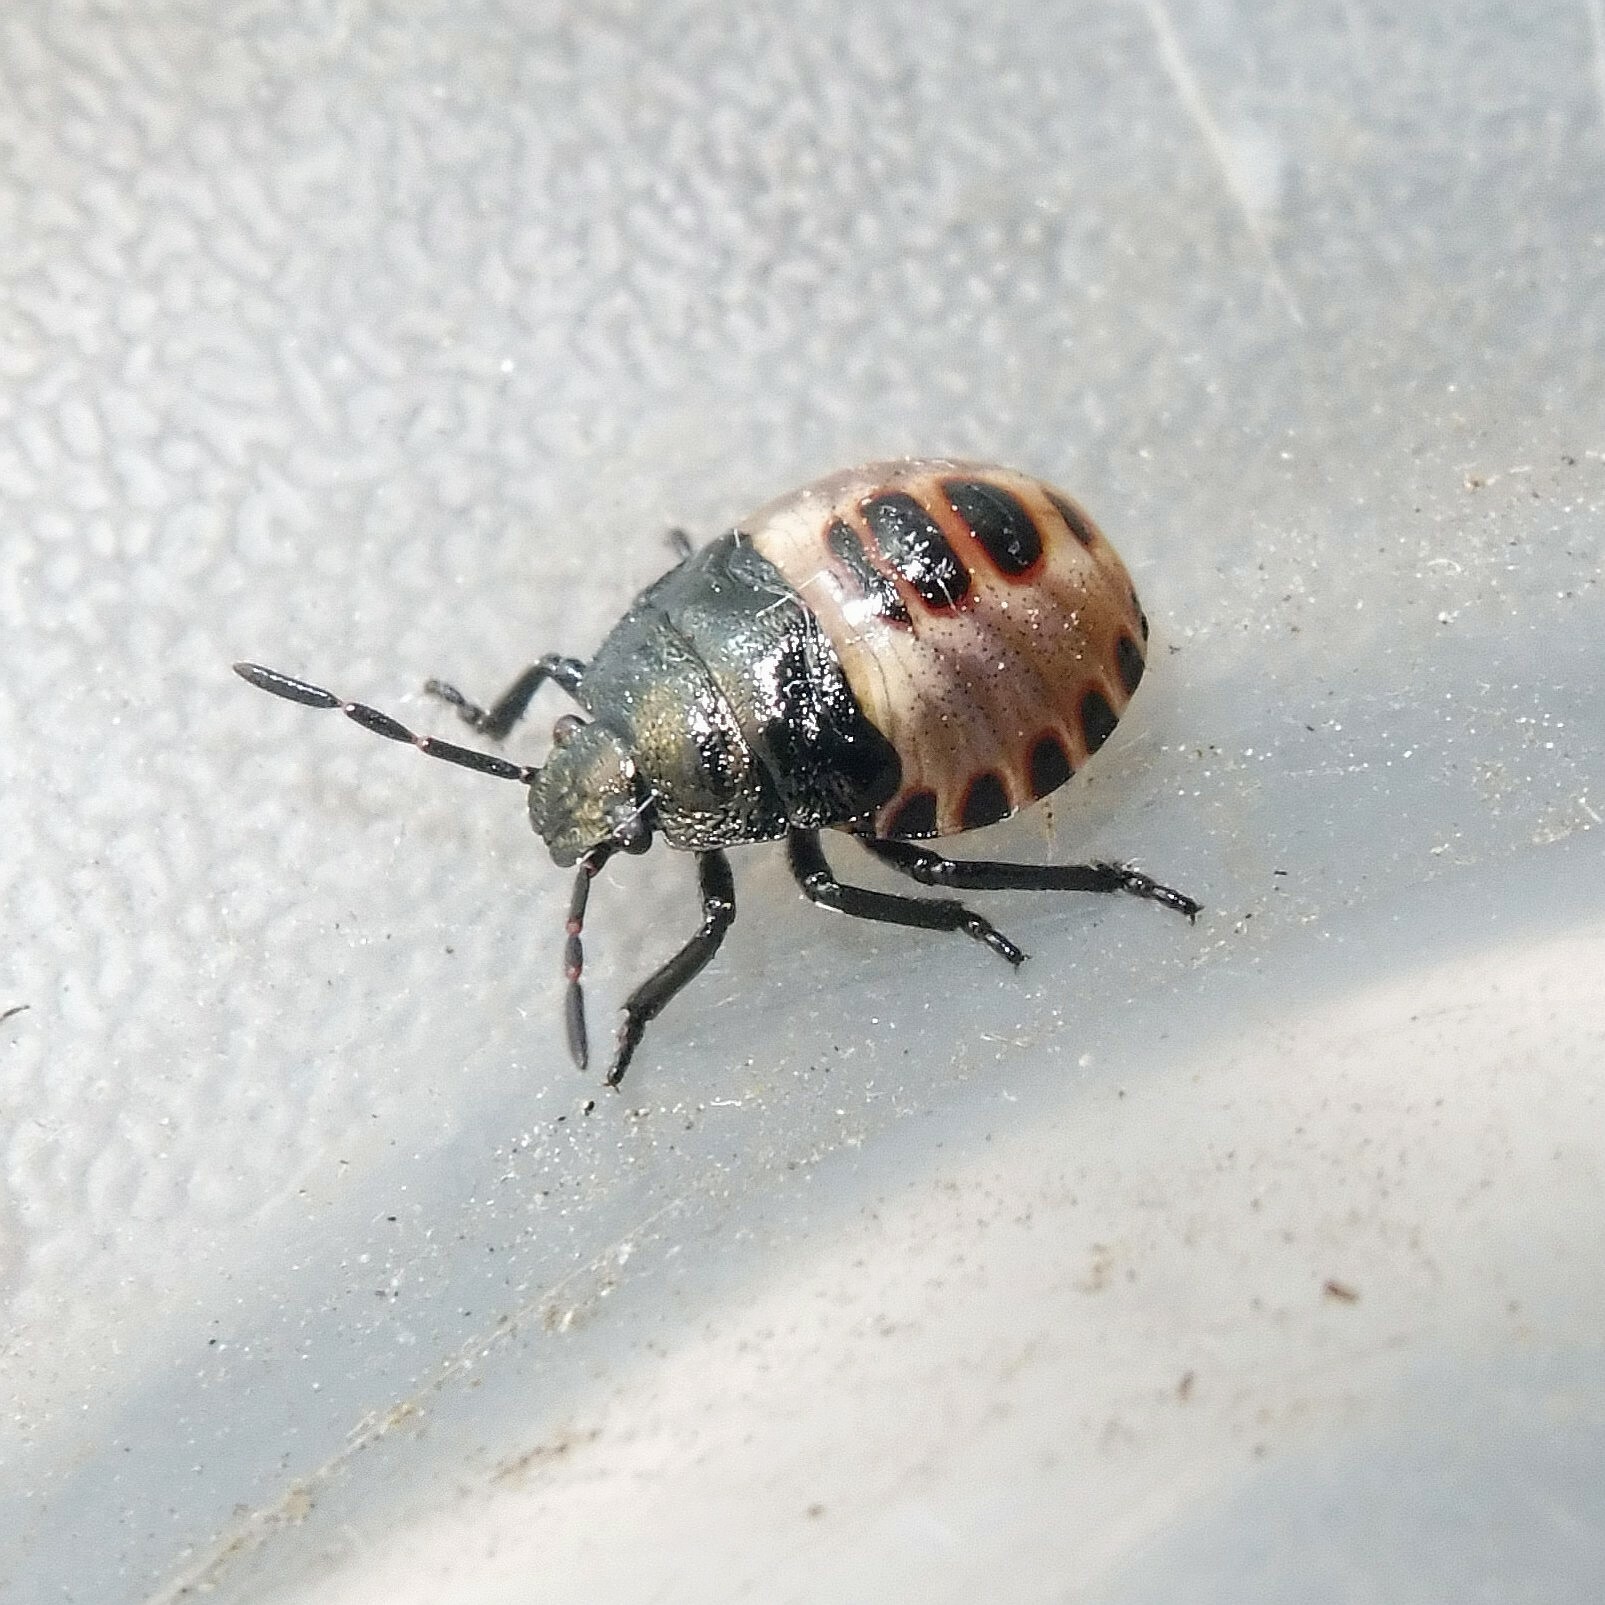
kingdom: Animalia
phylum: Arthropoda
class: Insecta
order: Hemiptera
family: Pentatomidae
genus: Rhacognathus
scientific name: Rhacognathus punctatus
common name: Heather bug
